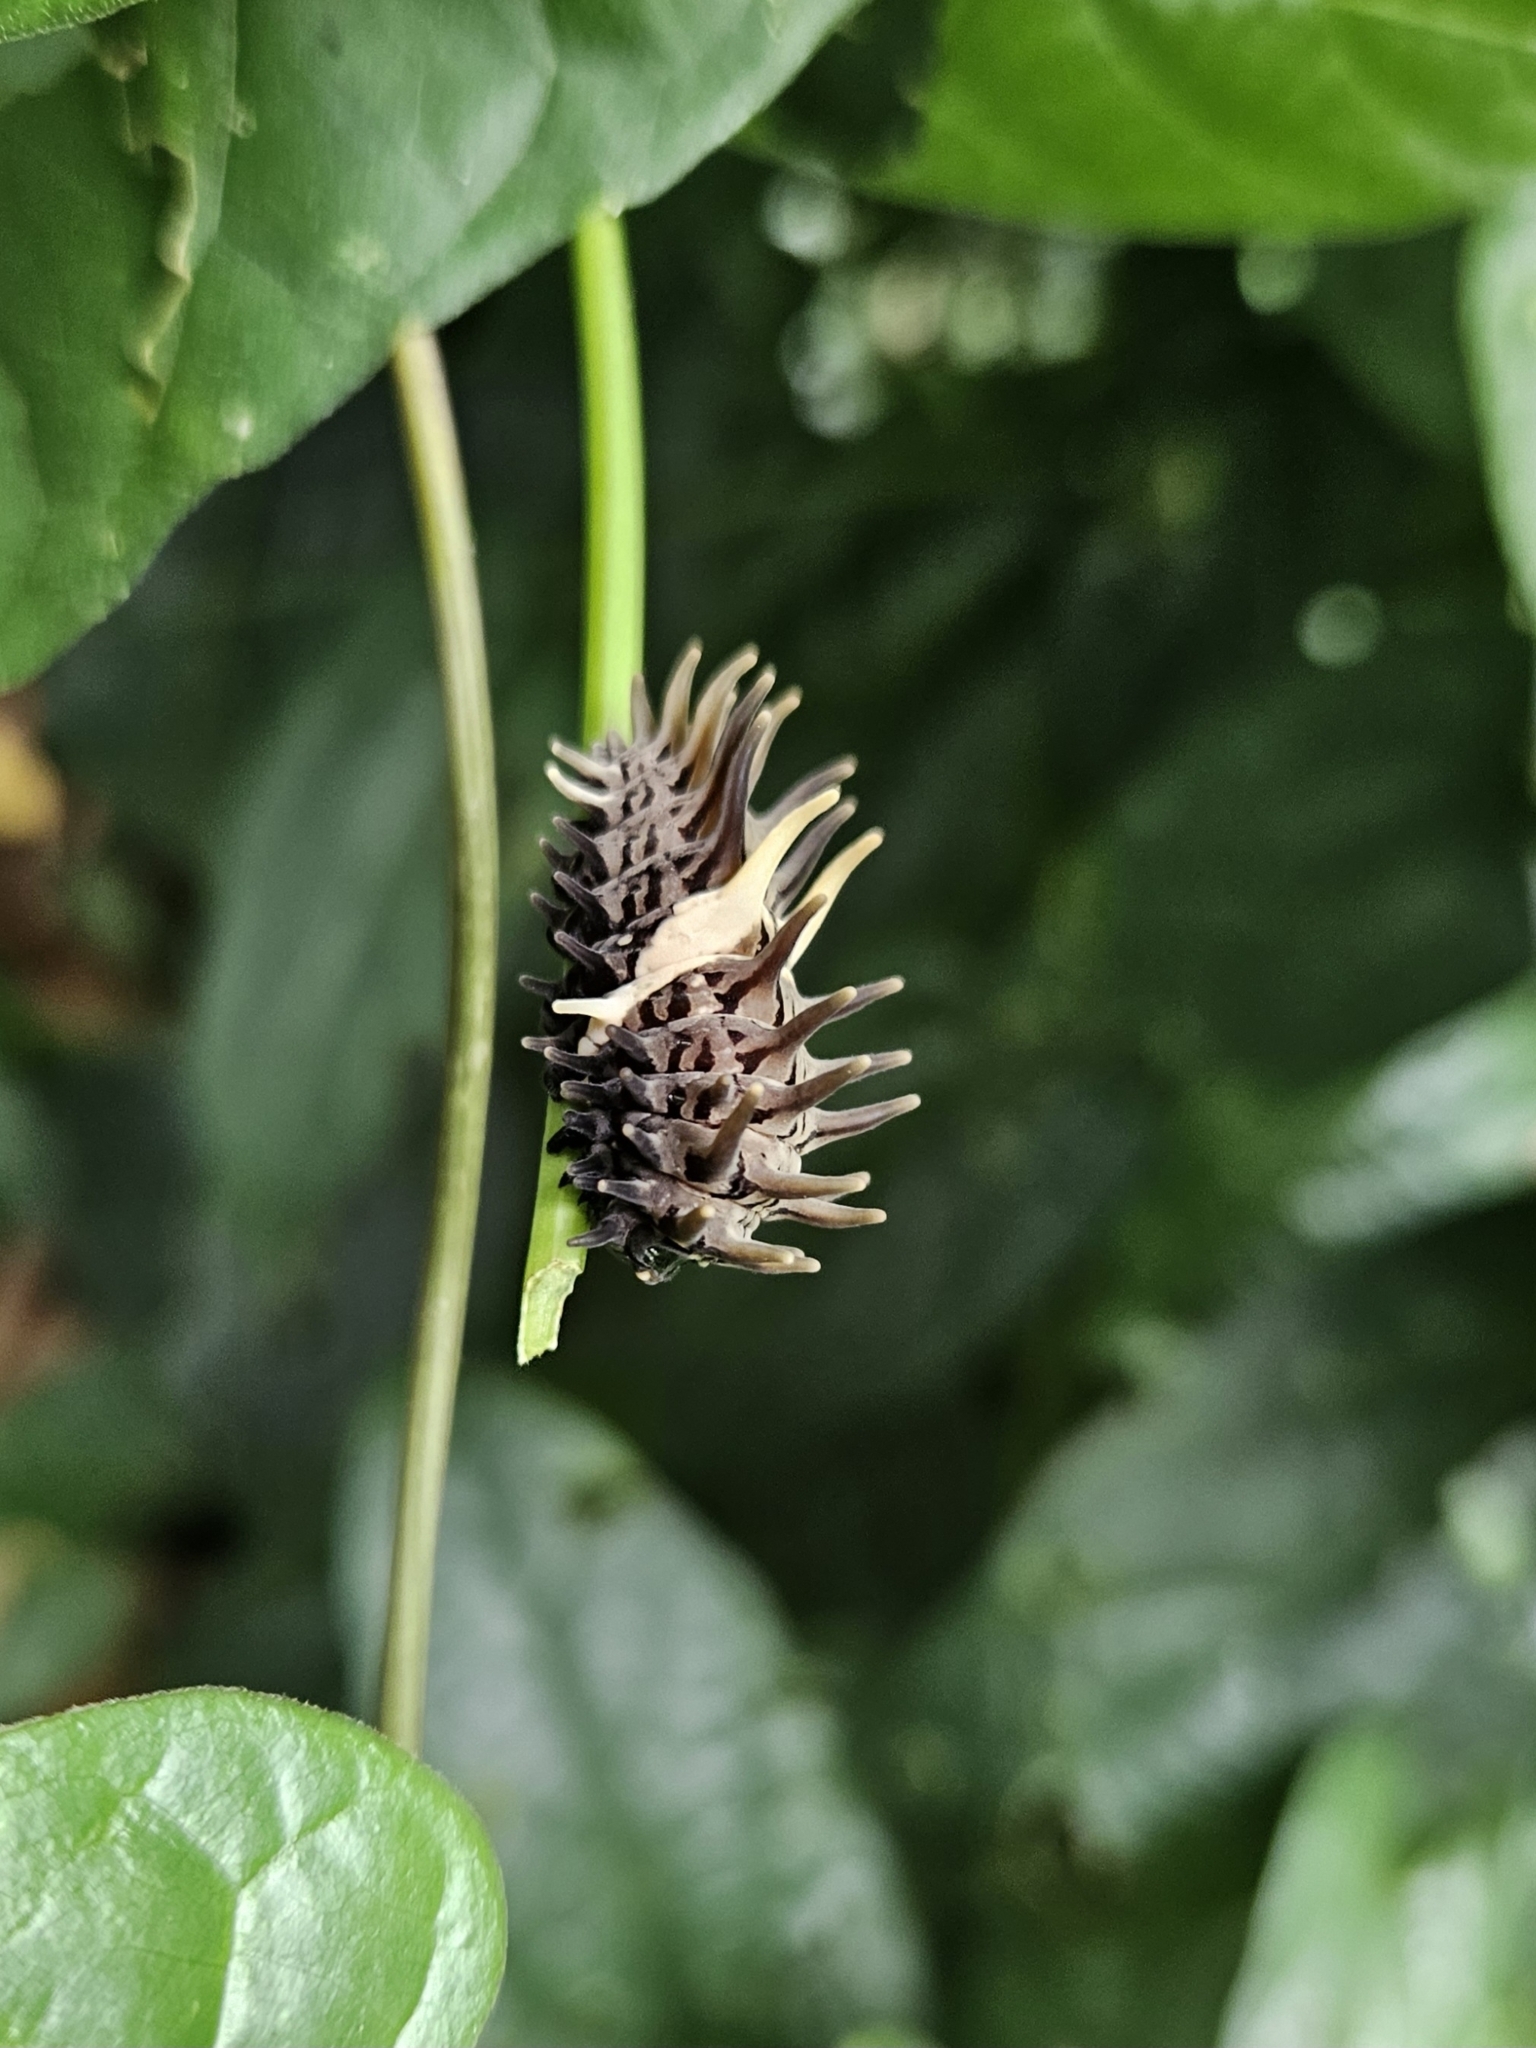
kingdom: Animalia
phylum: Arthropoda
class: Insecta
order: Lepidoptera
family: Papilionidae
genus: Troides
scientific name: Troides helena
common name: Common birdwing
